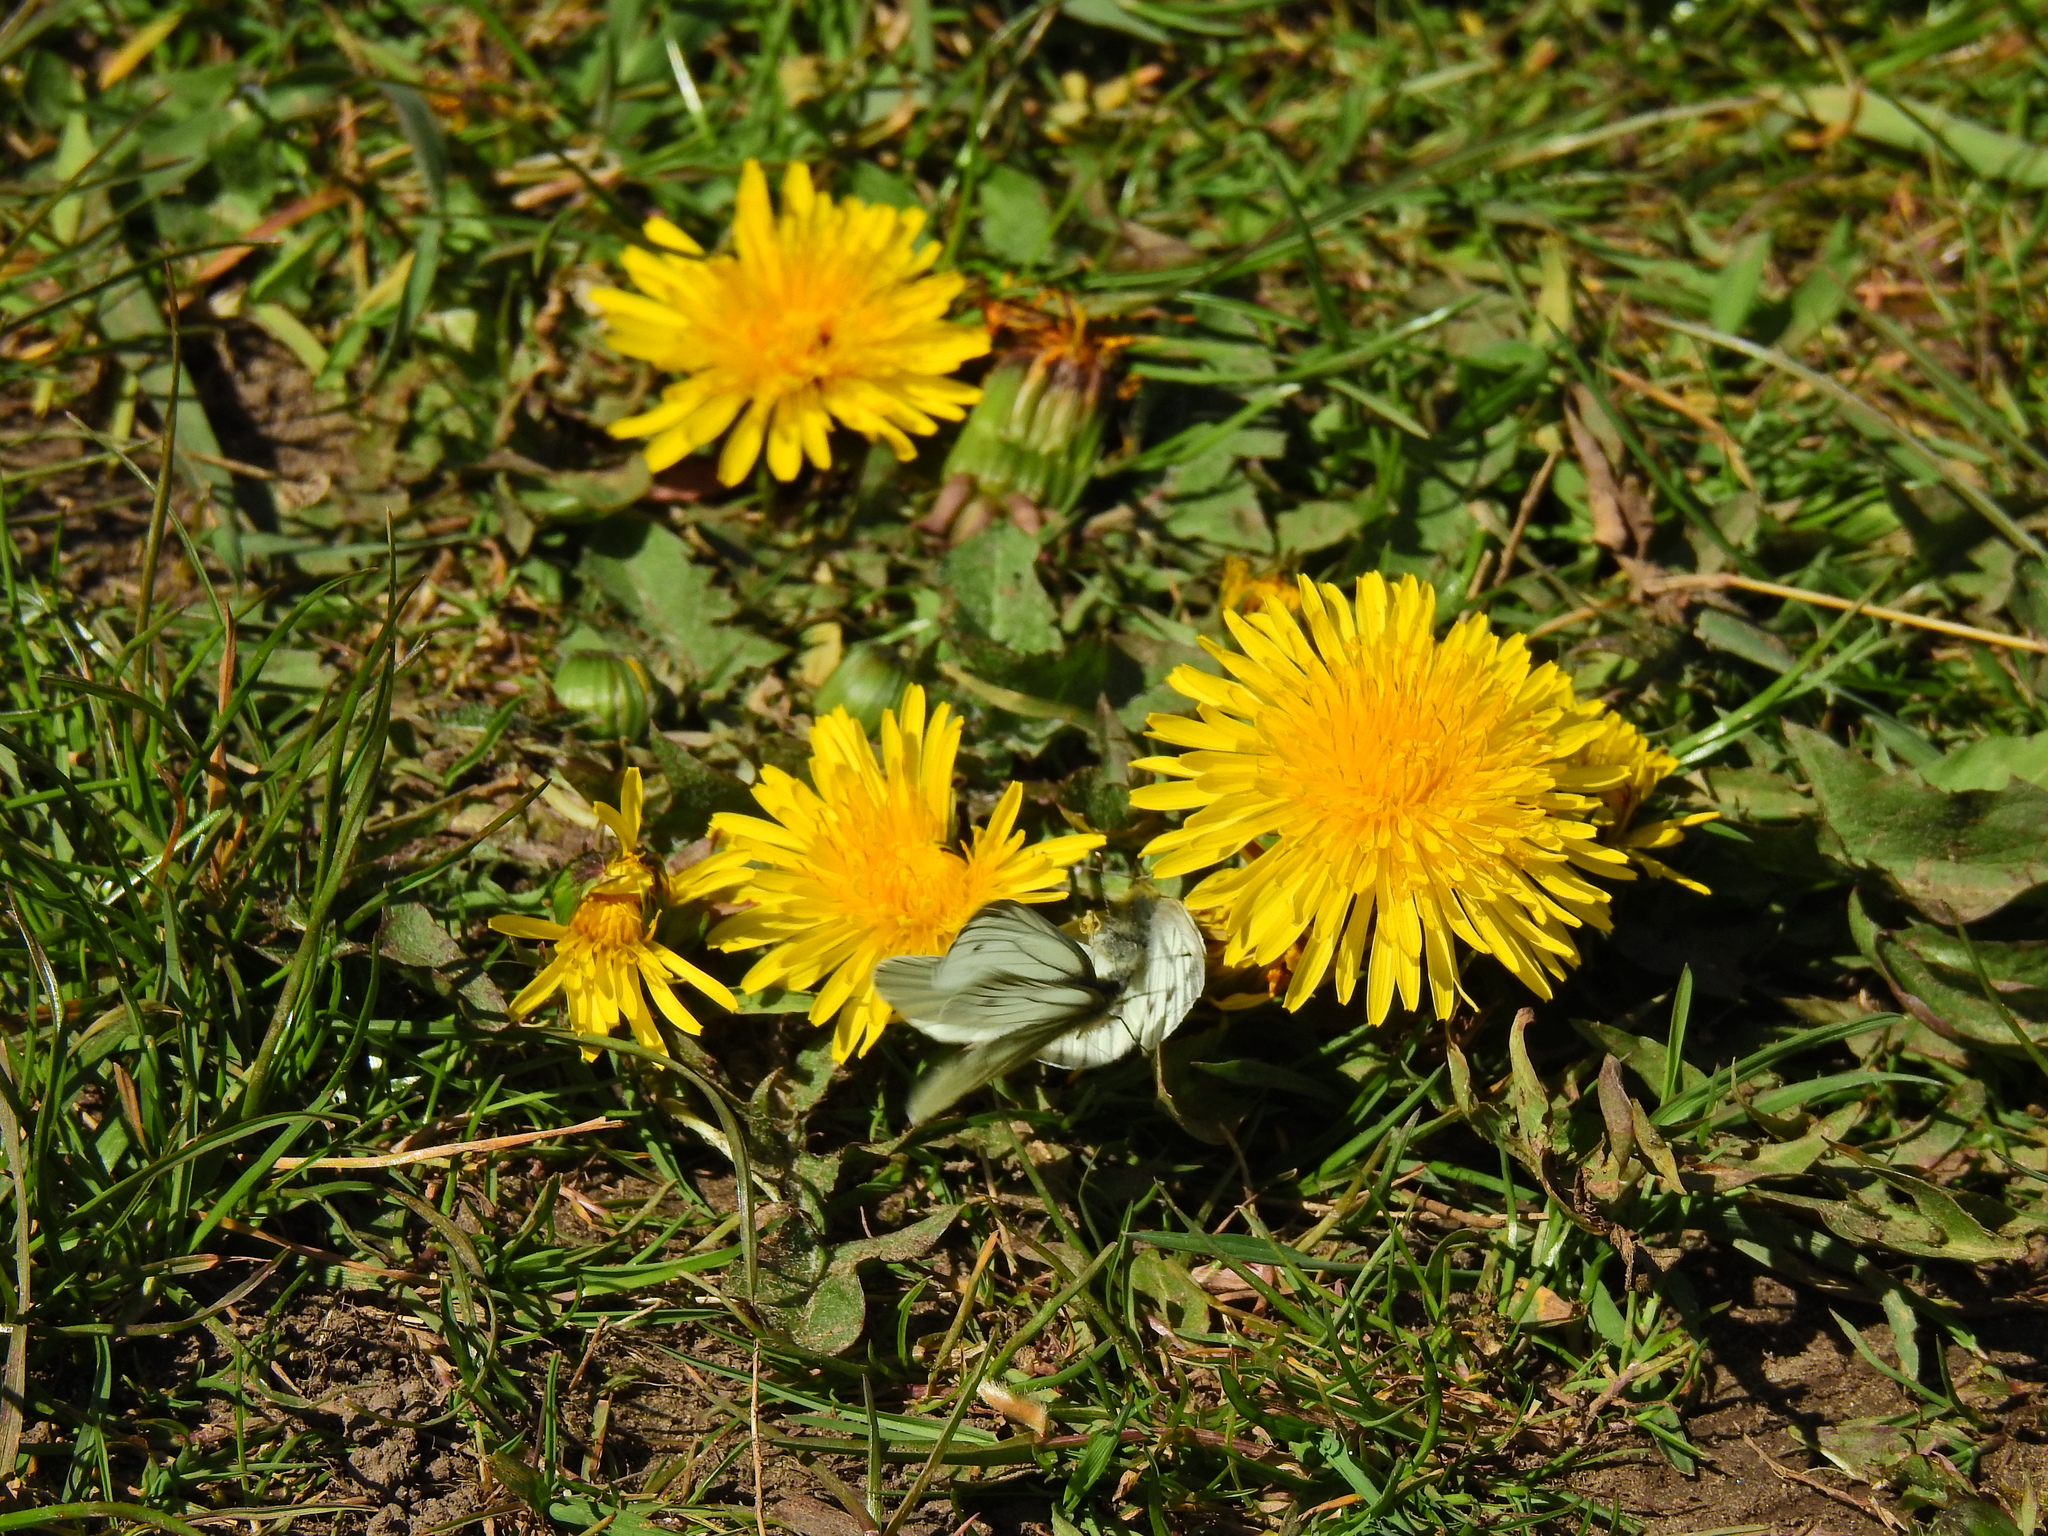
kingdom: Animalia
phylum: Arthropoda
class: Insecta
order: Lepidoptera
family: Pieridae
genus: Pieris
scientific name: Pieris napi
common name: Green-veined white
